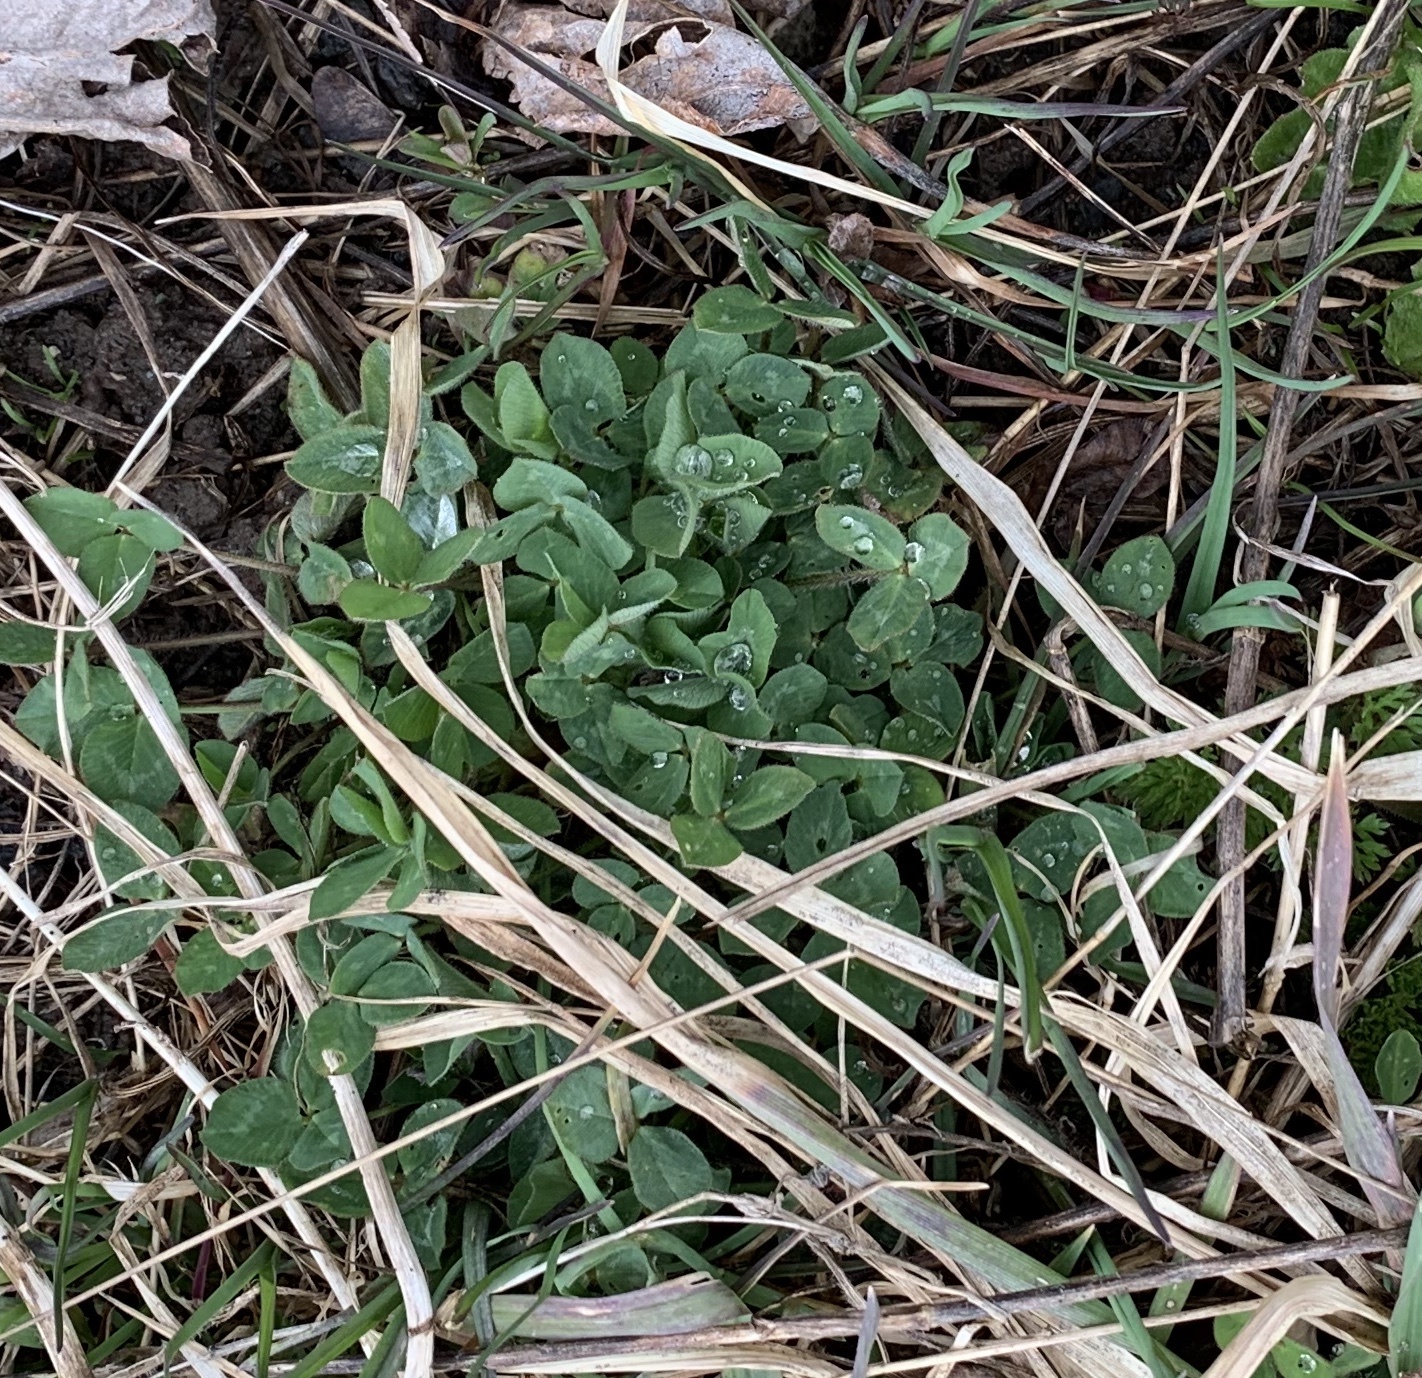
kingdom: Plantae
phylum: Tracheophyta
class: Magnoliopsida
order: Fabales
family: Fabaceae
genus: Trifolium
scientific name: Trifolium pratense
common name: Red clover
